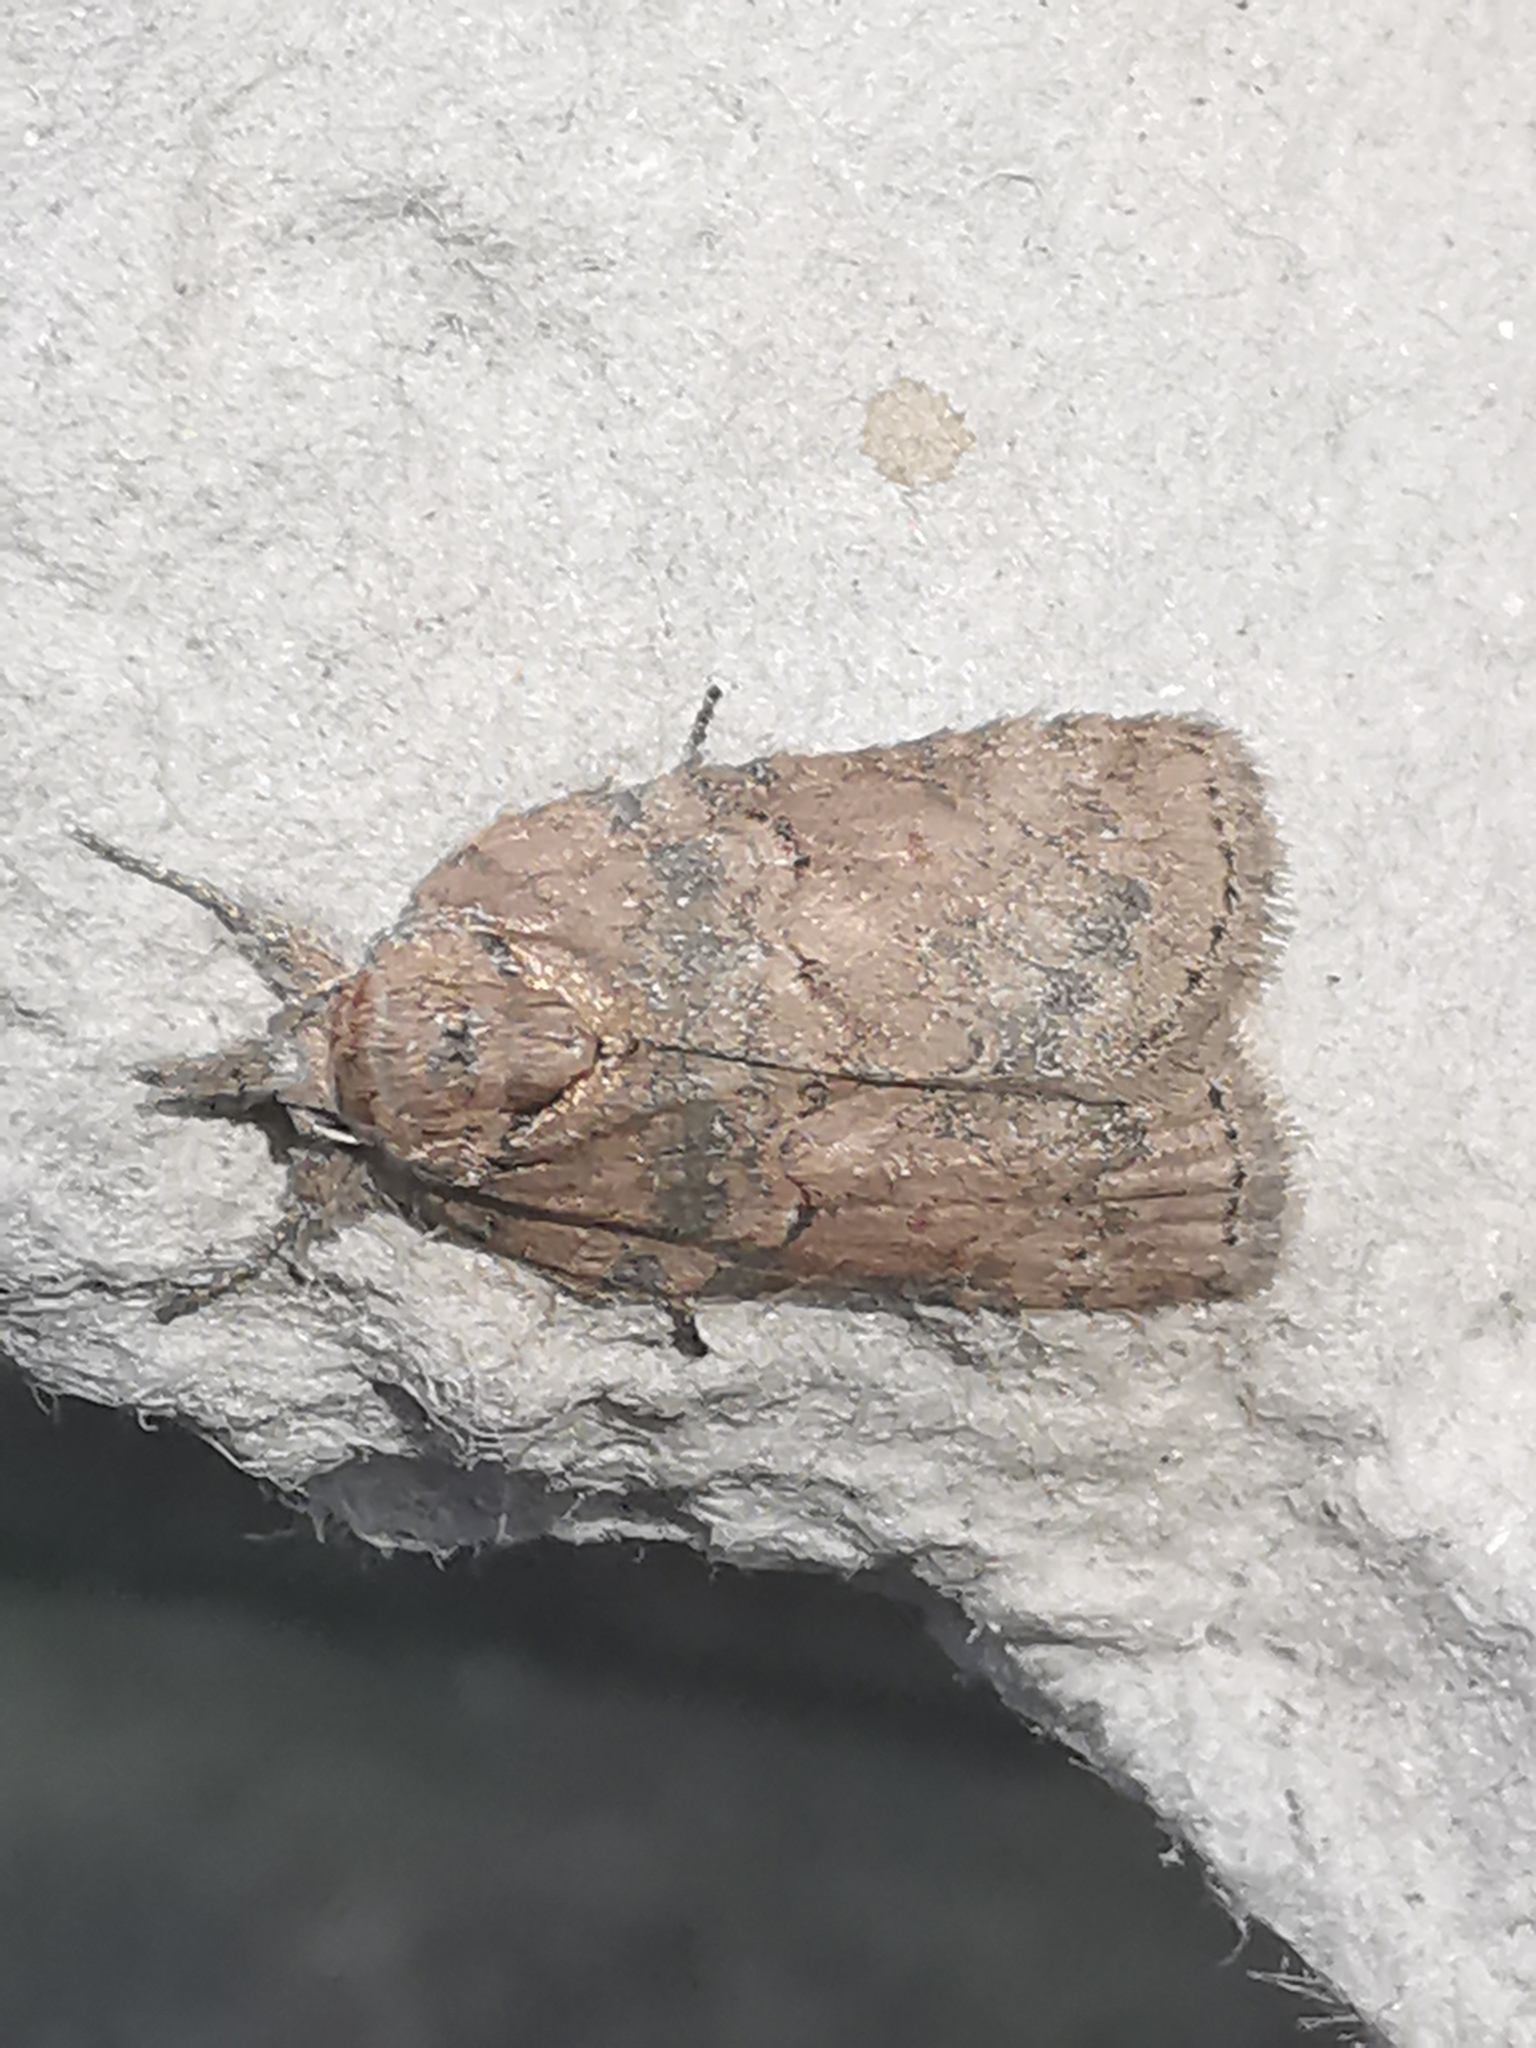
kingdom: Animalia
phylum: Arthropoda
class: Insecta
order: Lepidoptera
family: Nolidae
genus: Nycteola
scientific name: Nycteola revayana
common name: Oak nycteoline
